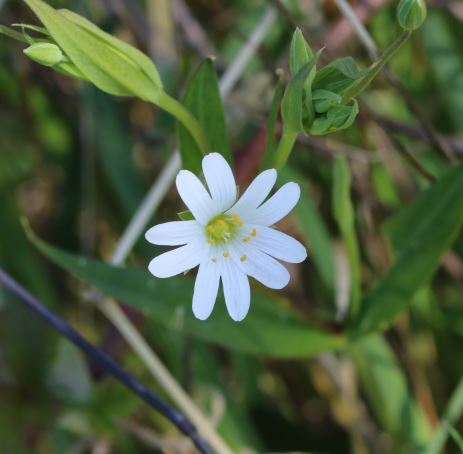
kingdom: Plantae
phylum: Tracheophyta
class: Magnoliopsida
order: Caryophyllales
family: Caryophyllaceae
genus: Rabelera
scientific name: Rabelera holostea
